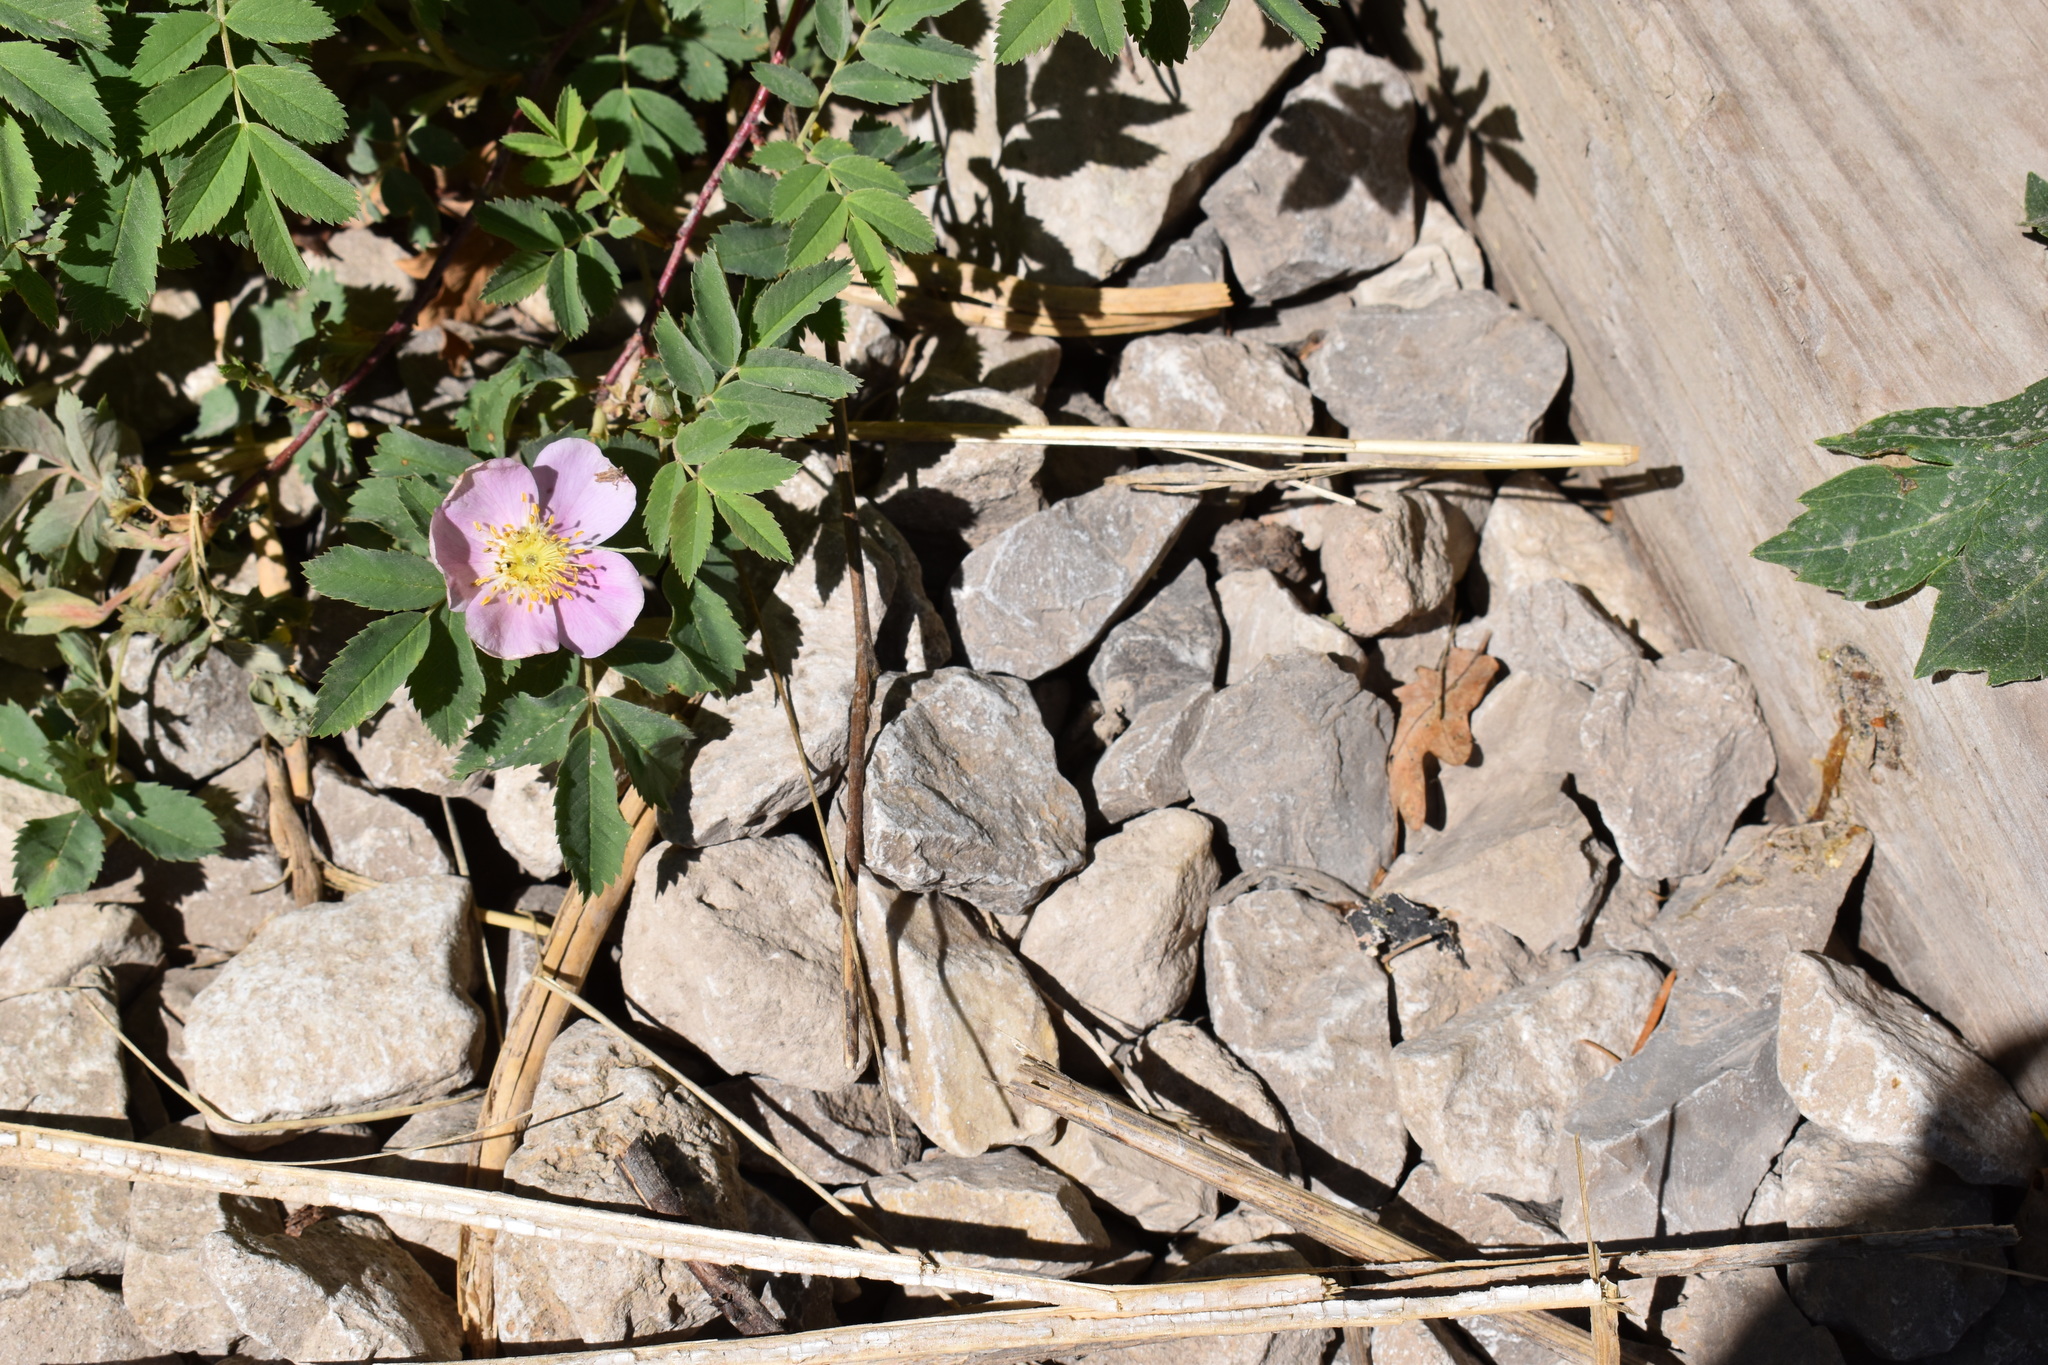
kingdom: Plantae
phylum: Tracheophyta
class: Magnoliopsida
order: Rosales
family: Rosaceae
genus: Rosa
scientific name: Rosa woodsii
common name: Woods's rose
